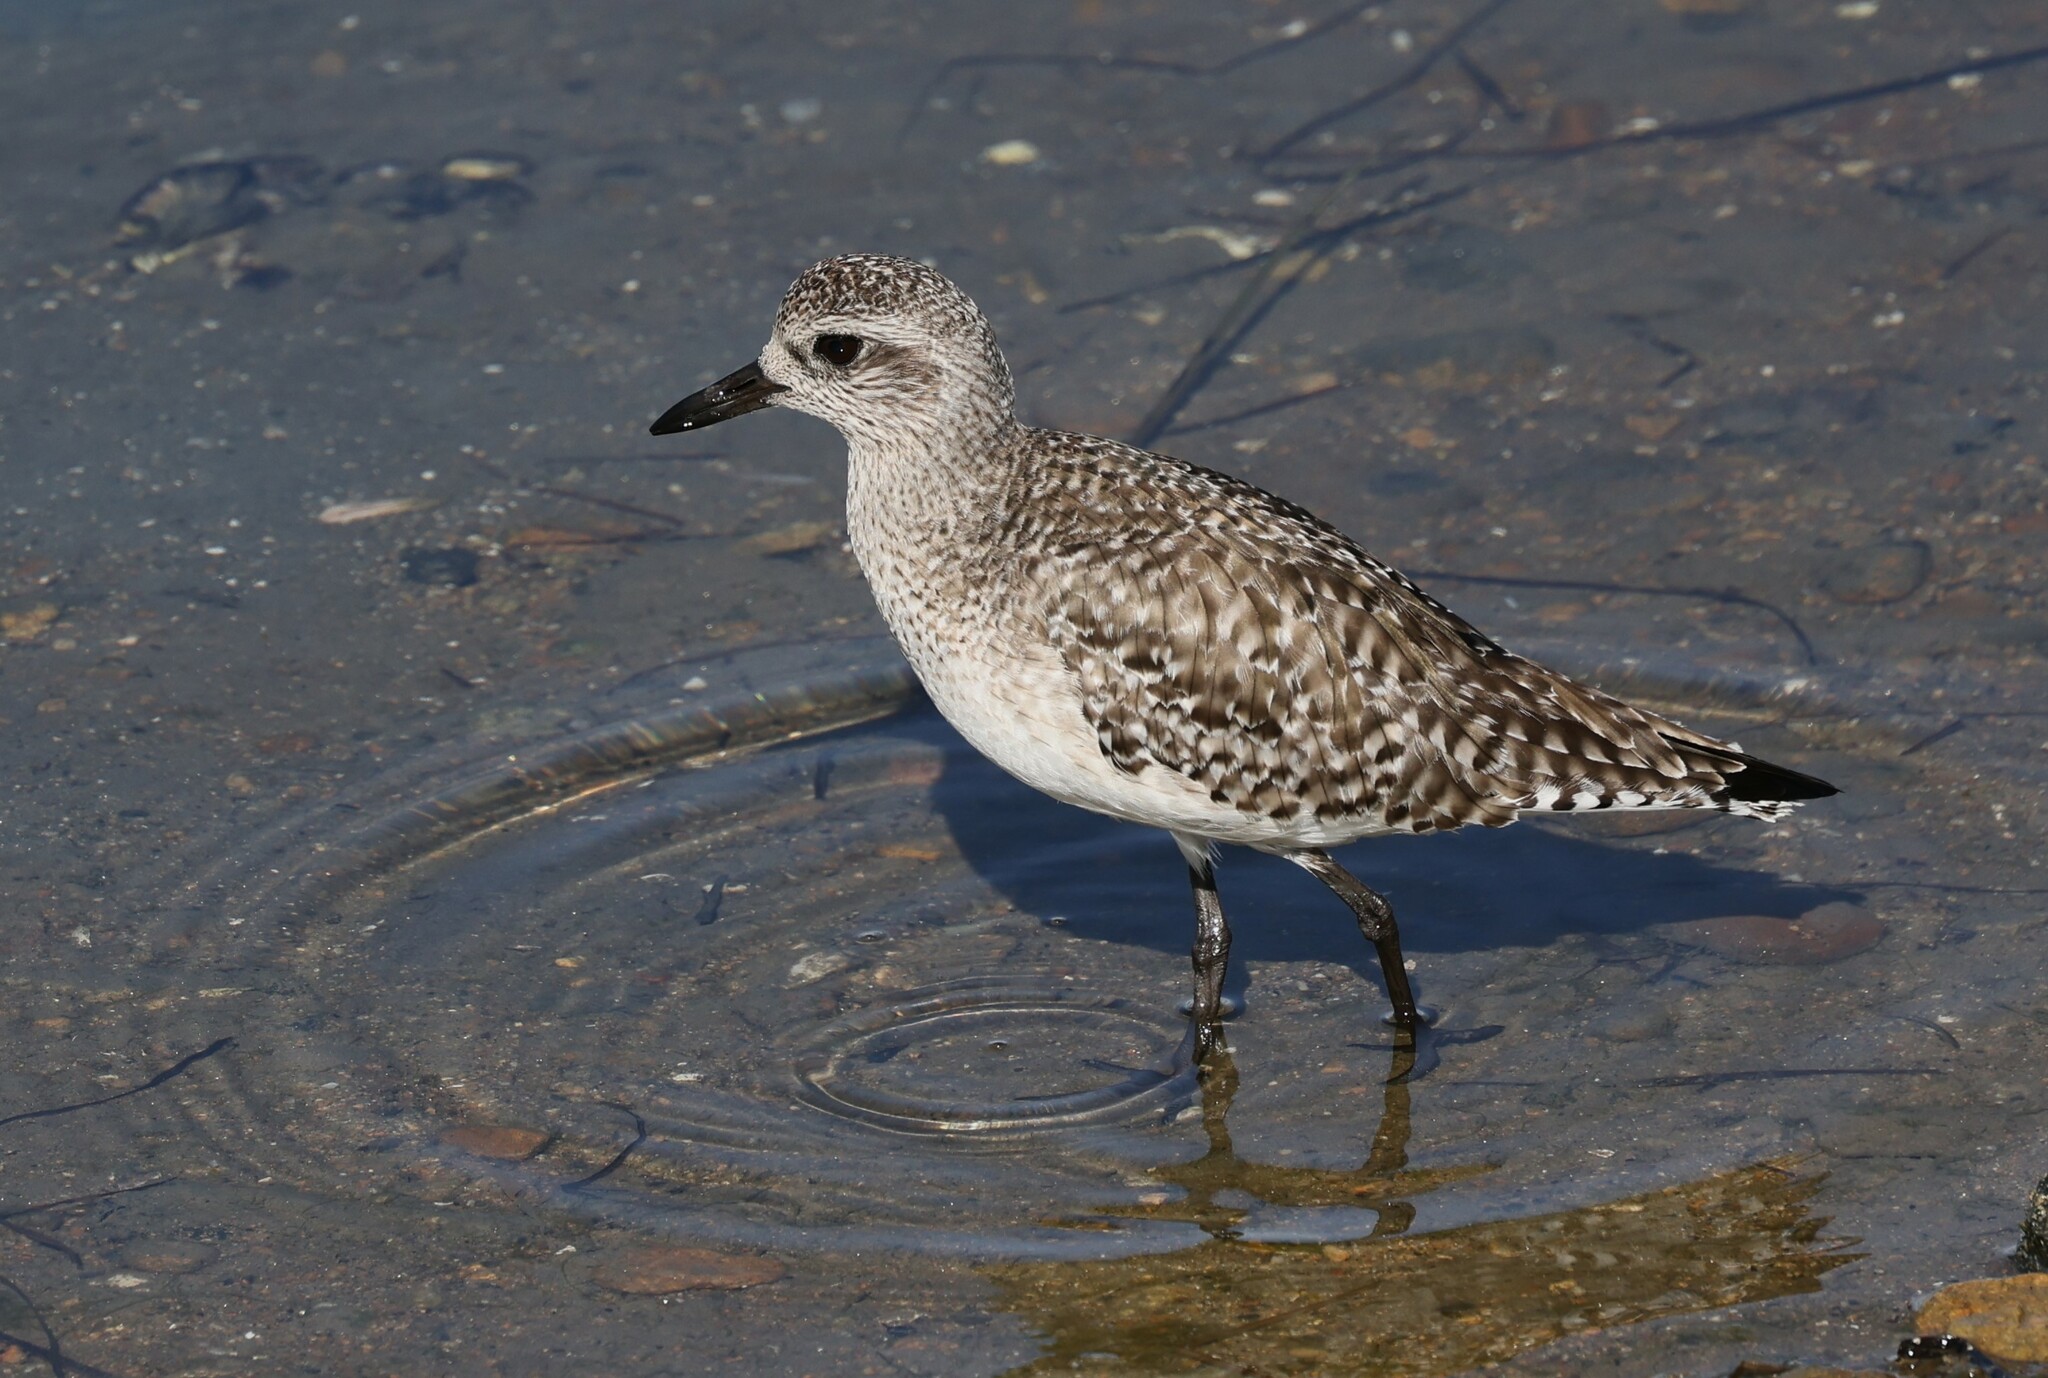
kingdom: Animalia
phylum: Chordata
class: Aves
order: Charadriiformes
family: Charadriidae
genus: Pluvialis
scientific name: Pluvialis squatarola
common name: Grey plover
